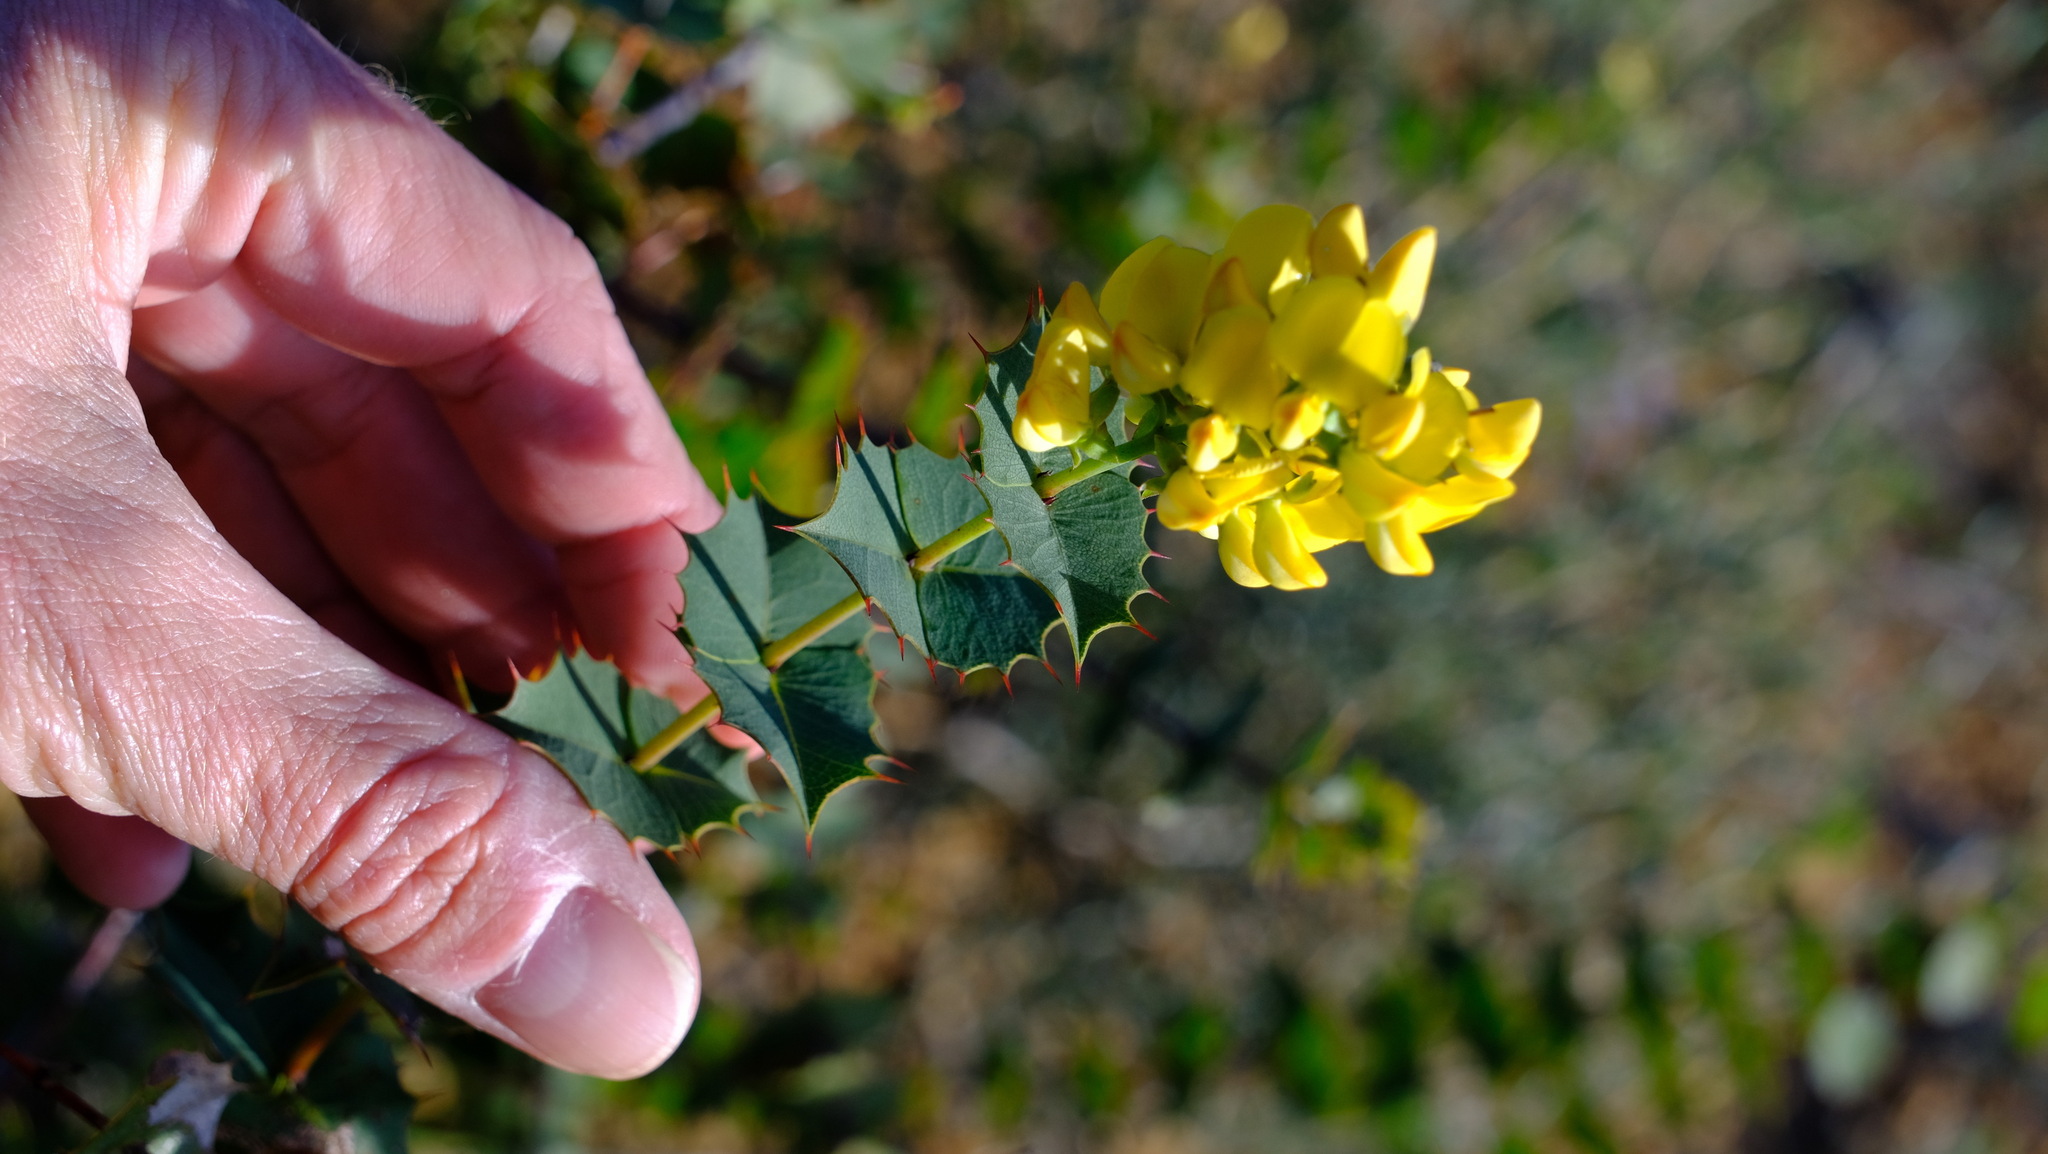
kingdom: Plantae
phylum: Tracheophyta
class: Magnoliopsida
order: Fabales
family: Fabaceae
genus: Gastrolobium
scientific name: Gastrolobium spinosum
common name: Prickly poison
